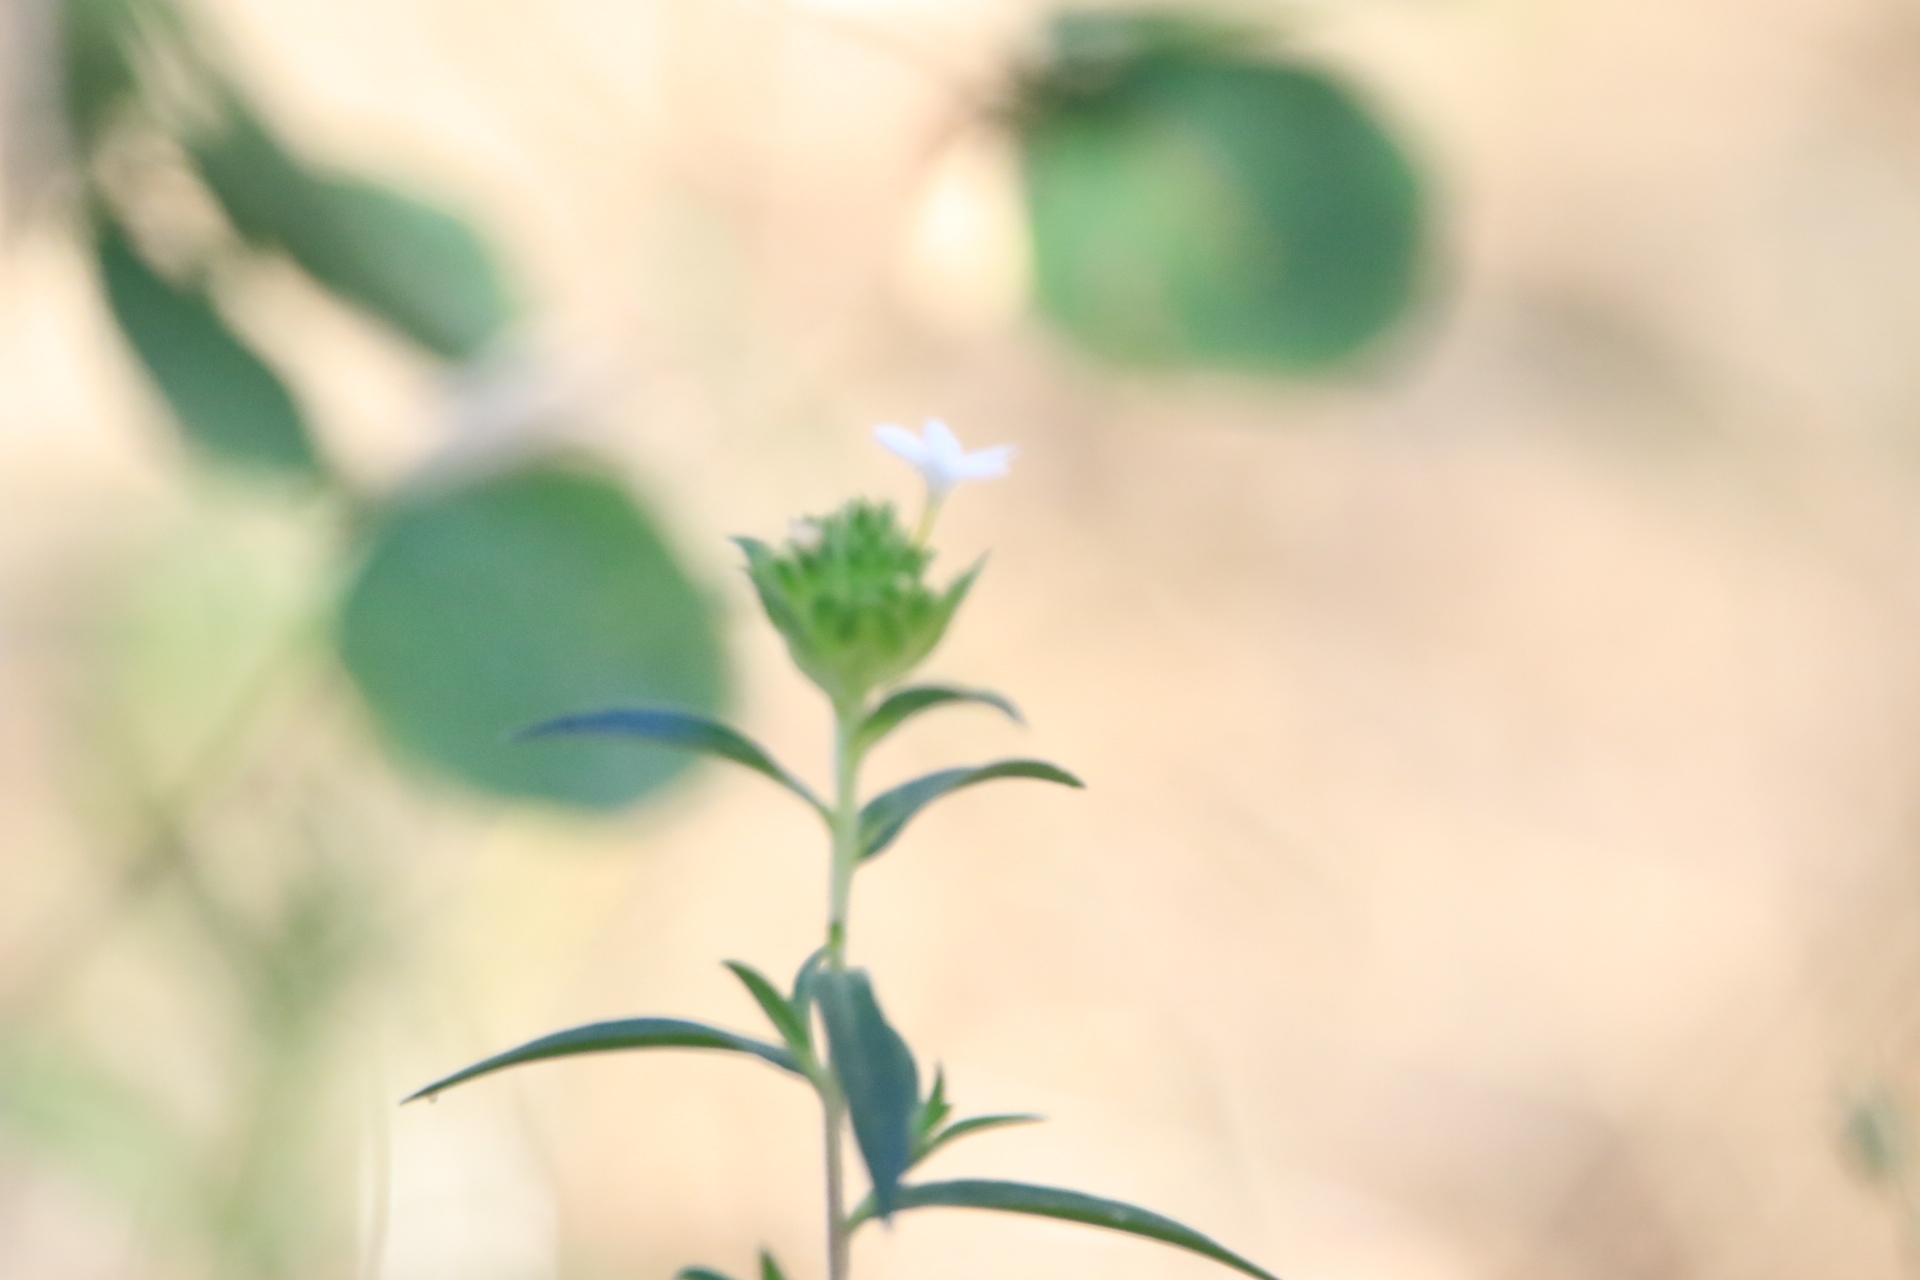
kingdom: Plantae
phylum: Tracheophyta
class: Magnoliopsida
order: Ericales
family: Polemoniaceae
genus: Collomia
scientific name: Collomia grandiflora
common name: California strawflower
